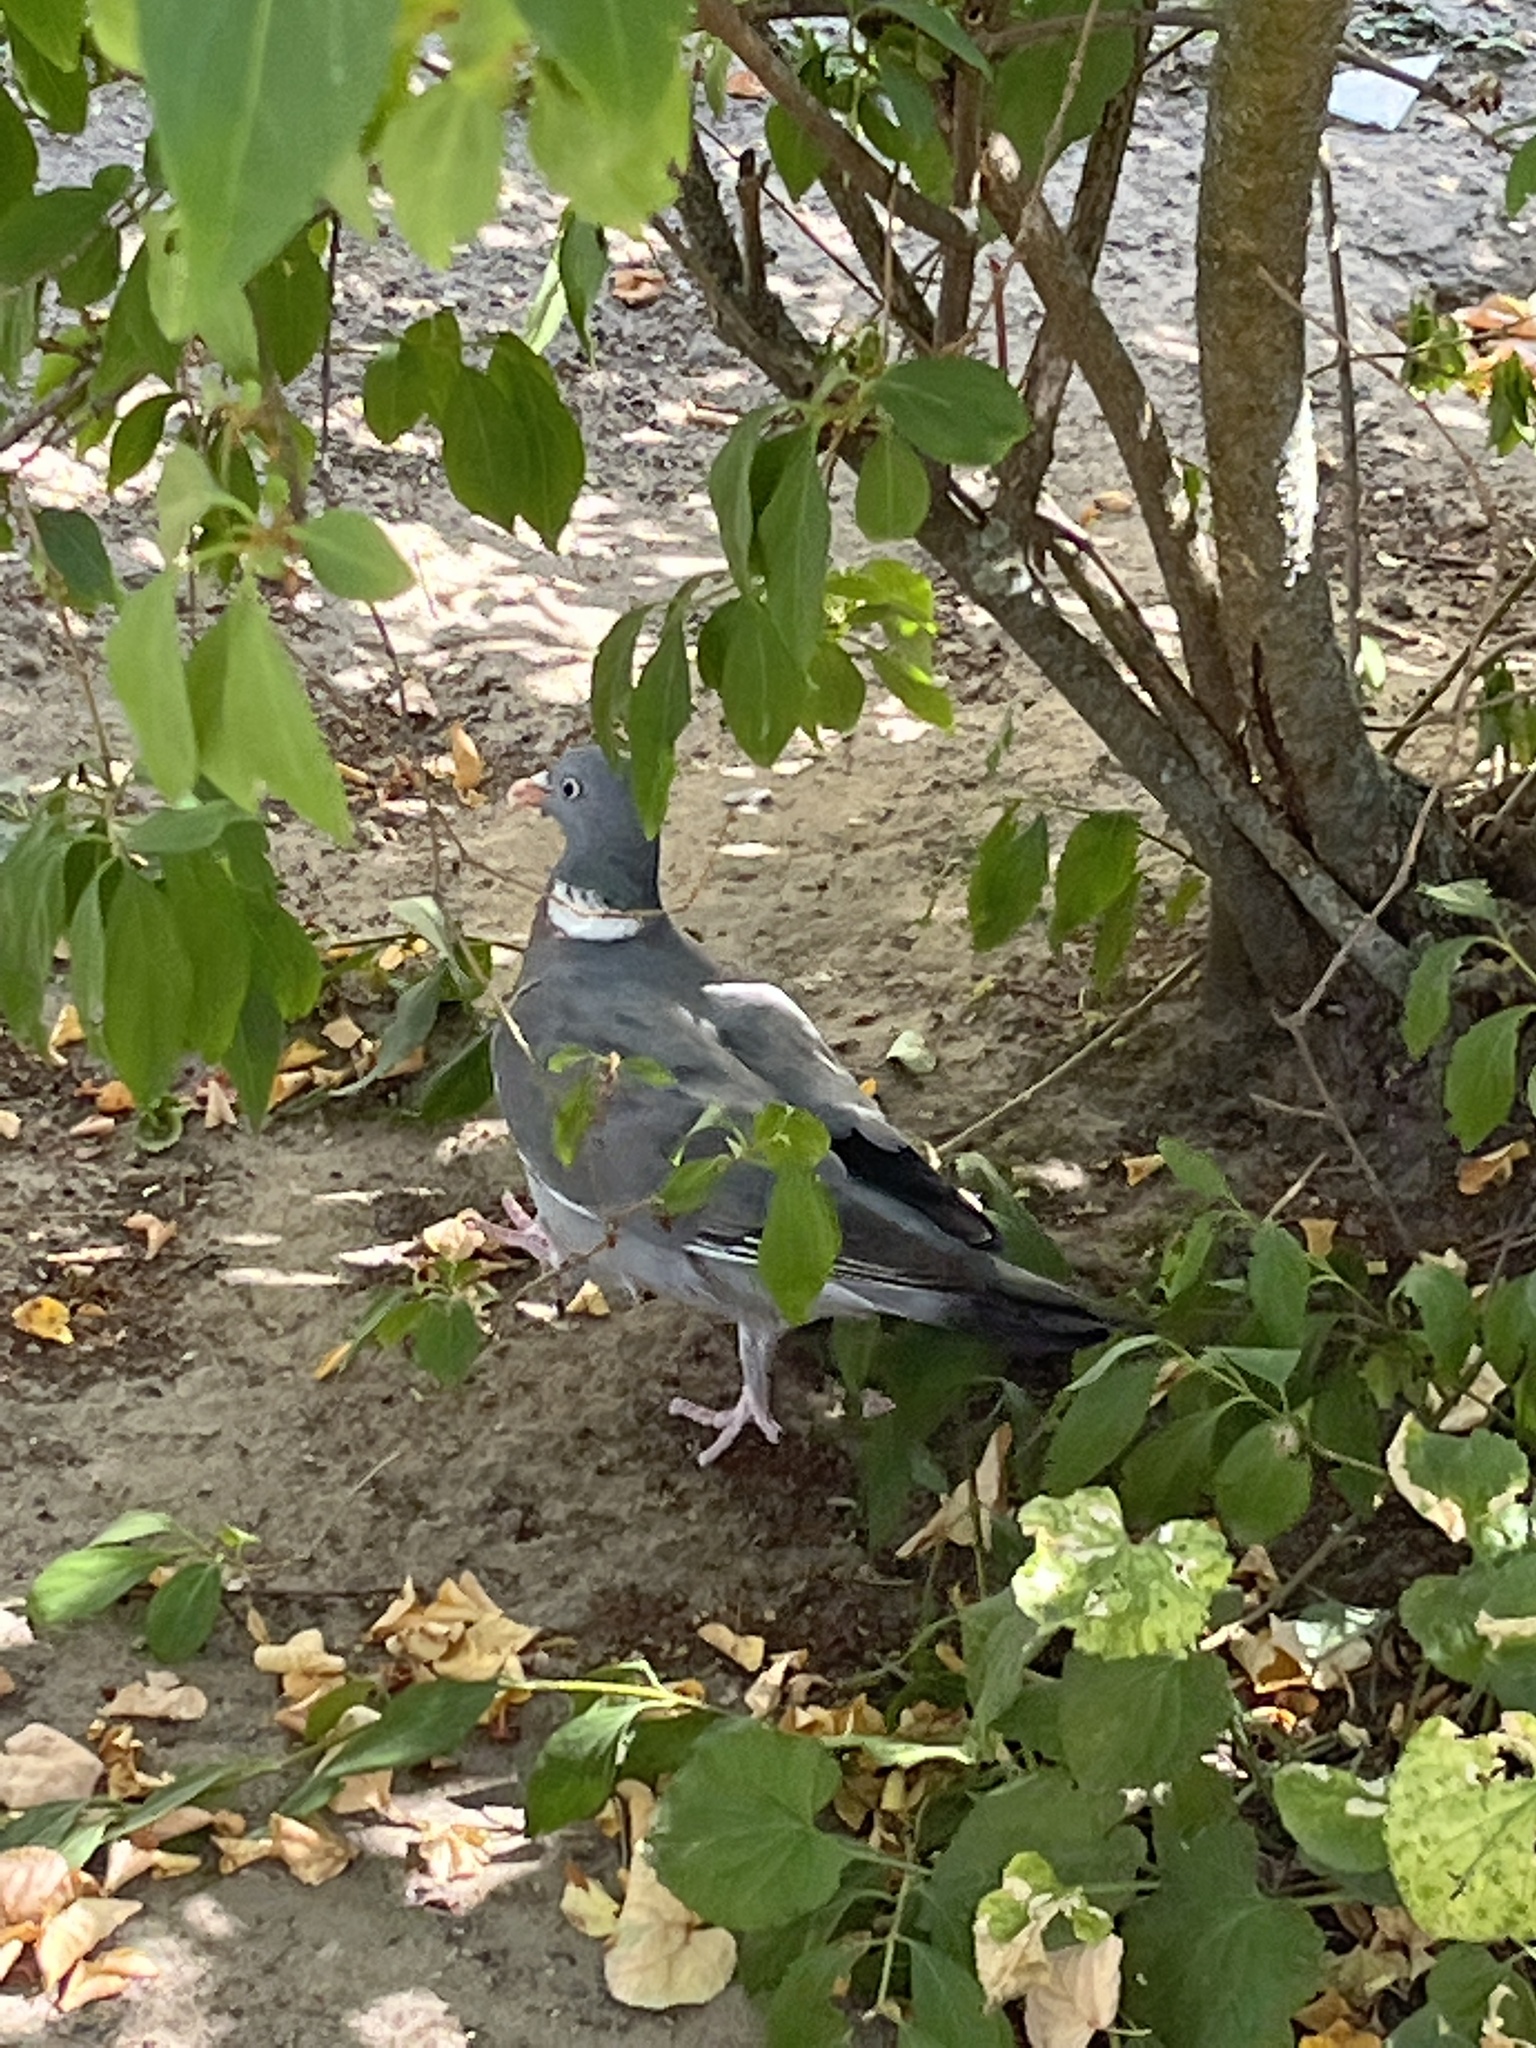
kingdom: Animalia
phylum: Chordata
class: Aves
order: Columbiformes
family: Columbidae
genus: Columba
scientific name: Columba palumbus
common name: Common wood pigeon
